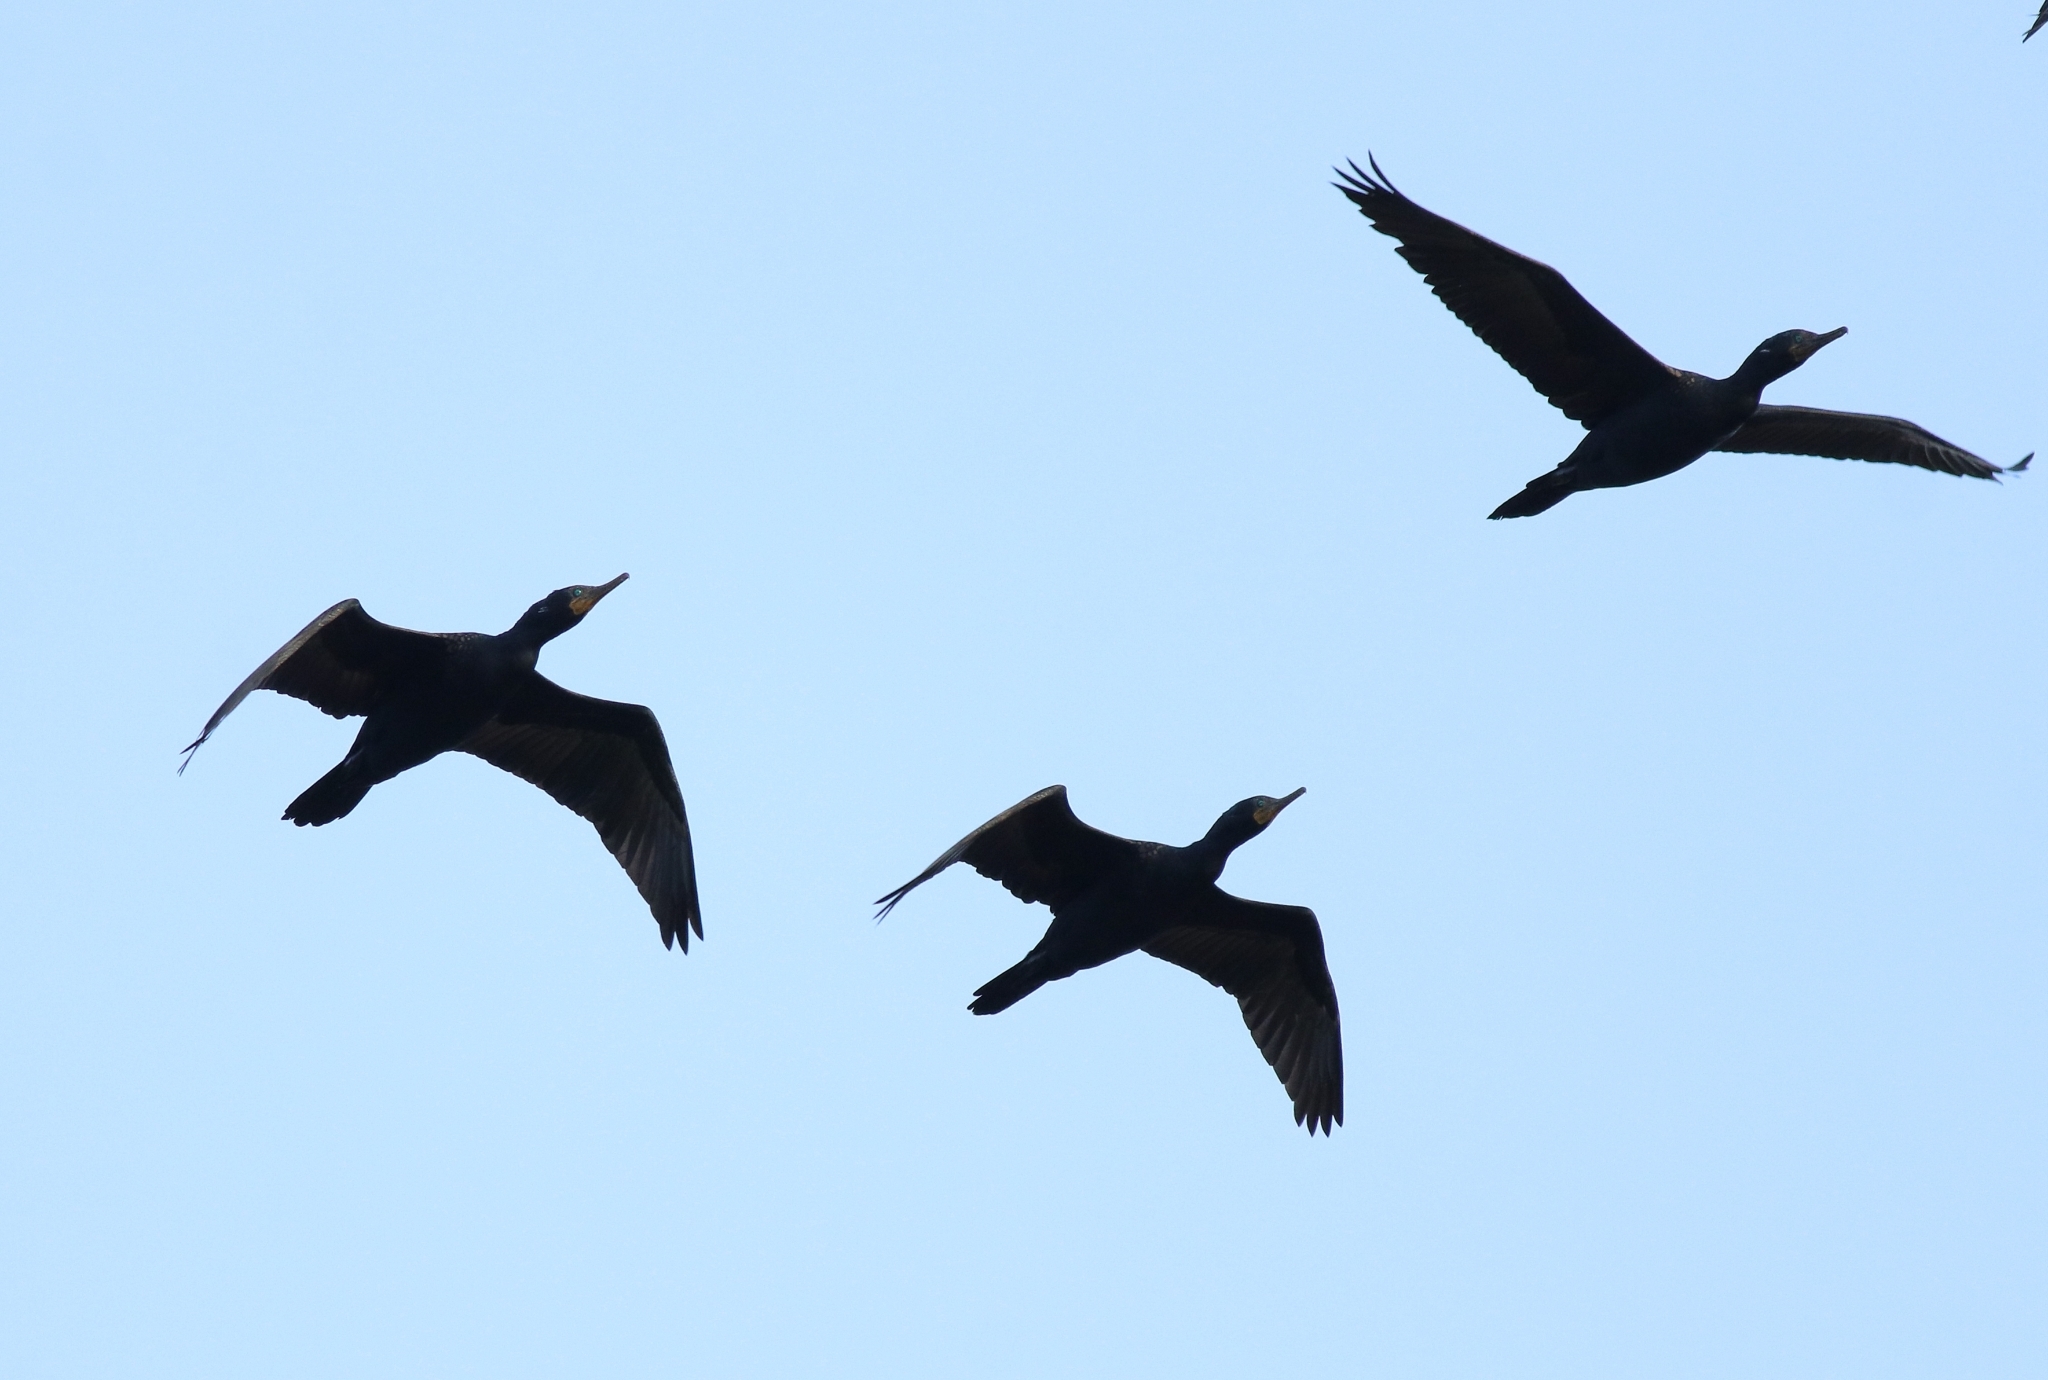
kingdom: Animalia
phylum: Chordata
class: Aves
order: Suliformes
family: Phalacrocoracidae
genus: Phalacrocorax
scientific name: Phalacrocorax fuscicollis
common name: Indian cormorant
